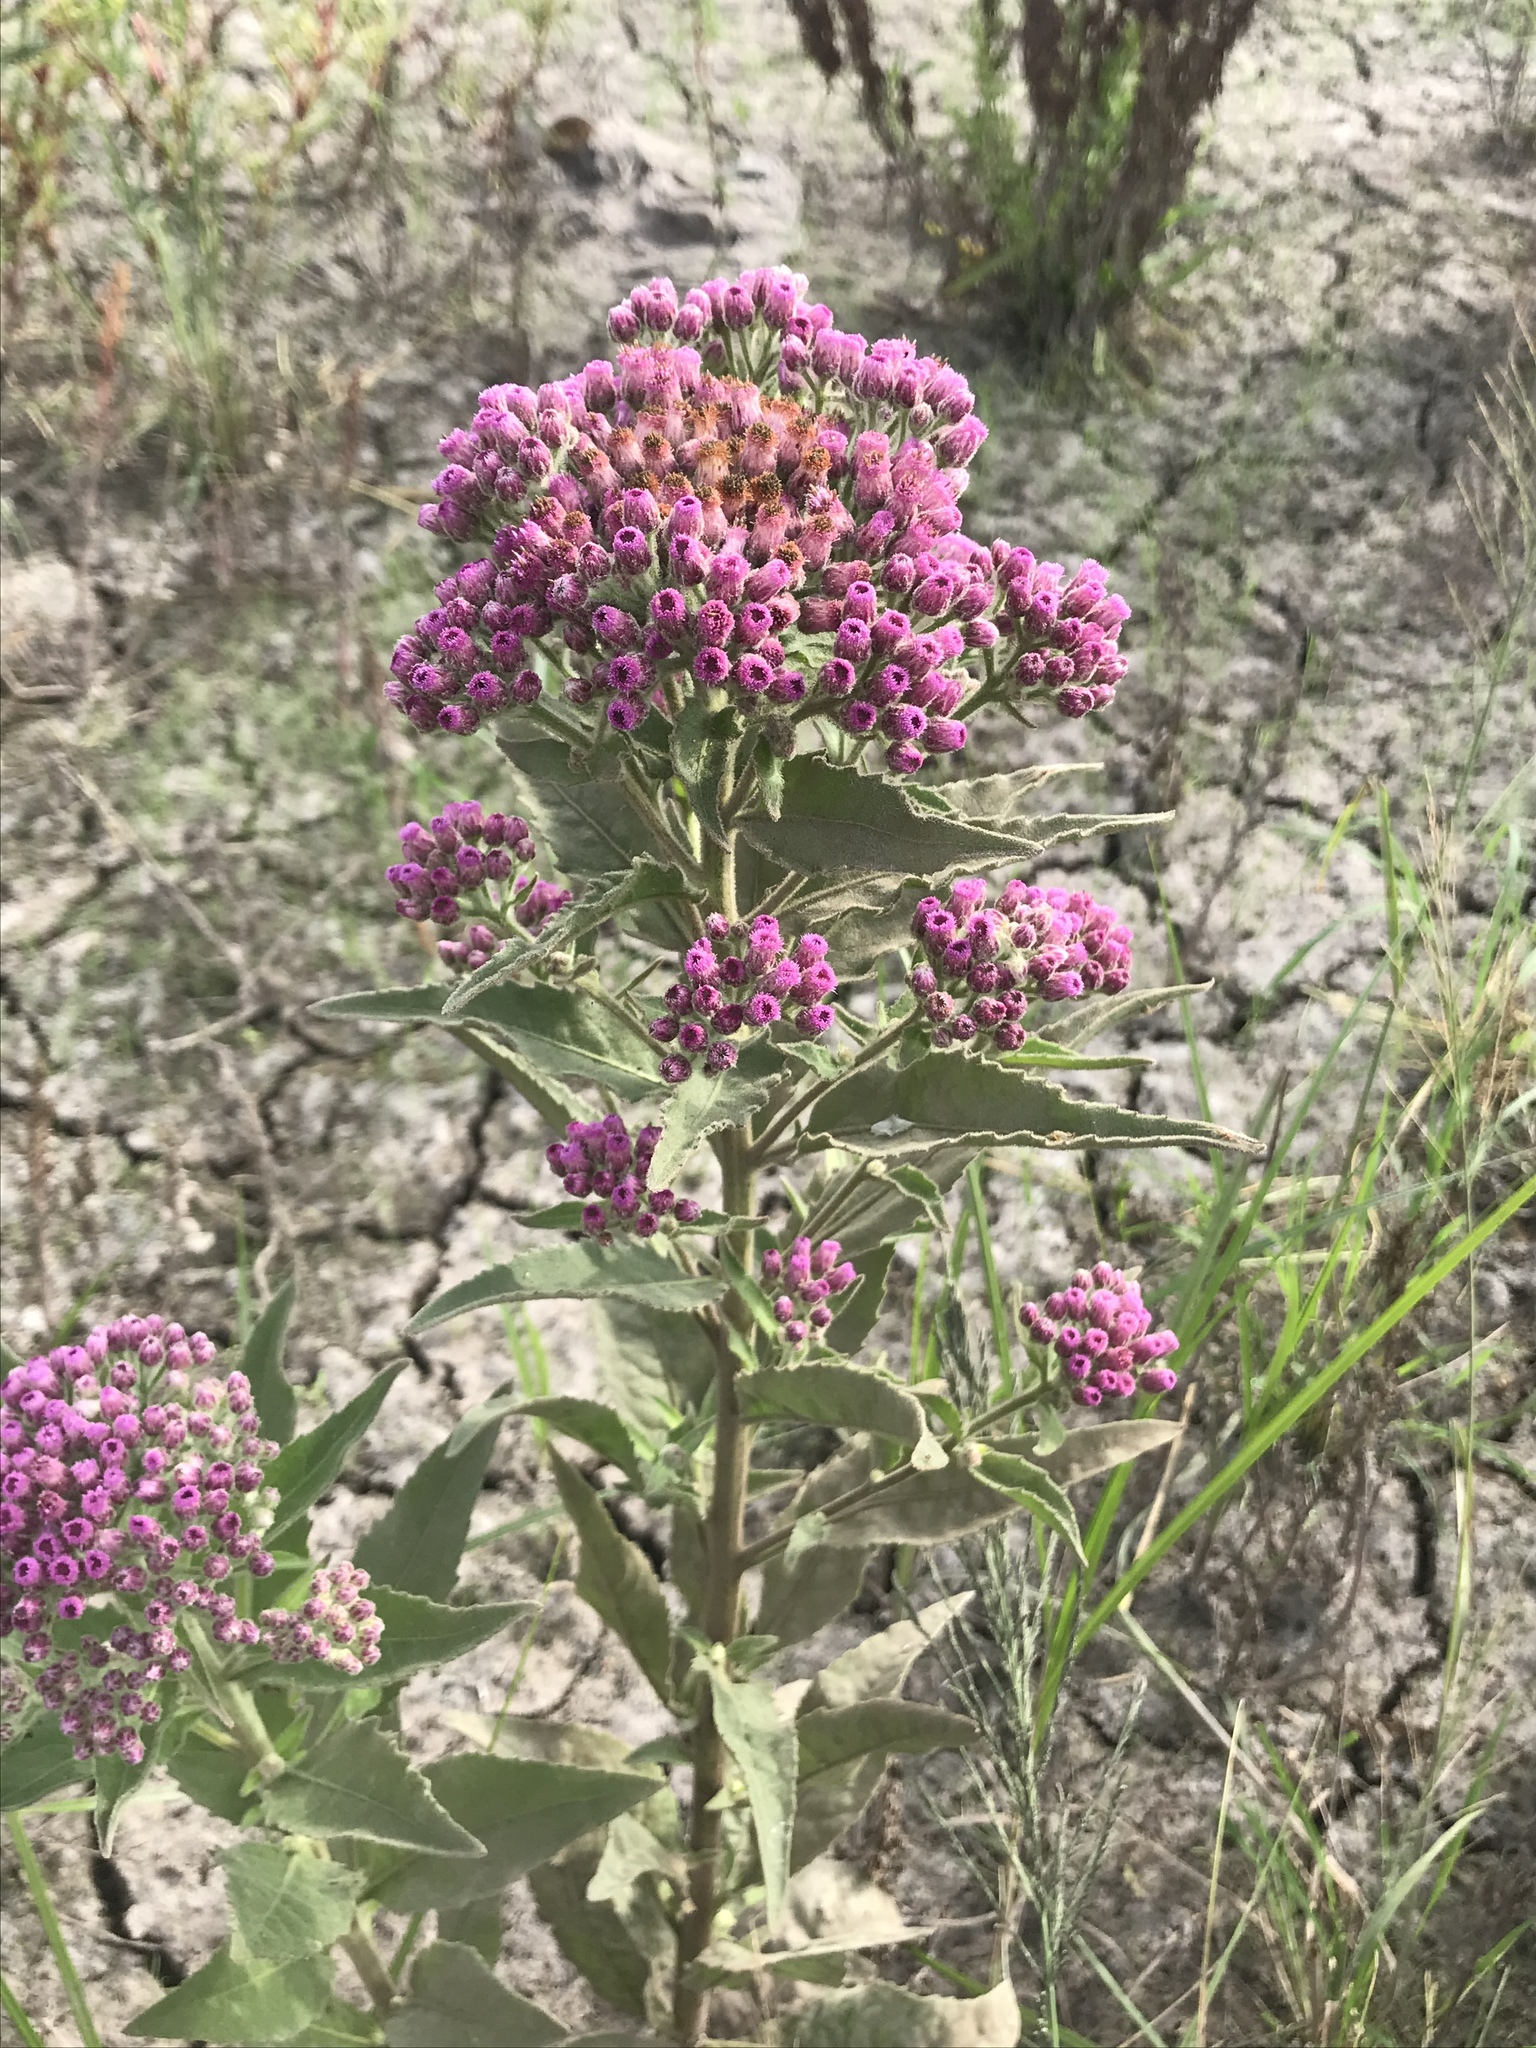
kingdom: Plantae
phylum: Tracheophyta
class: Magnoliopsida
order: Asterales
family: Asteraceae
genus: Pluchea
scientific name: Pluchea odorata
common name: Saltmarsh fleabane
